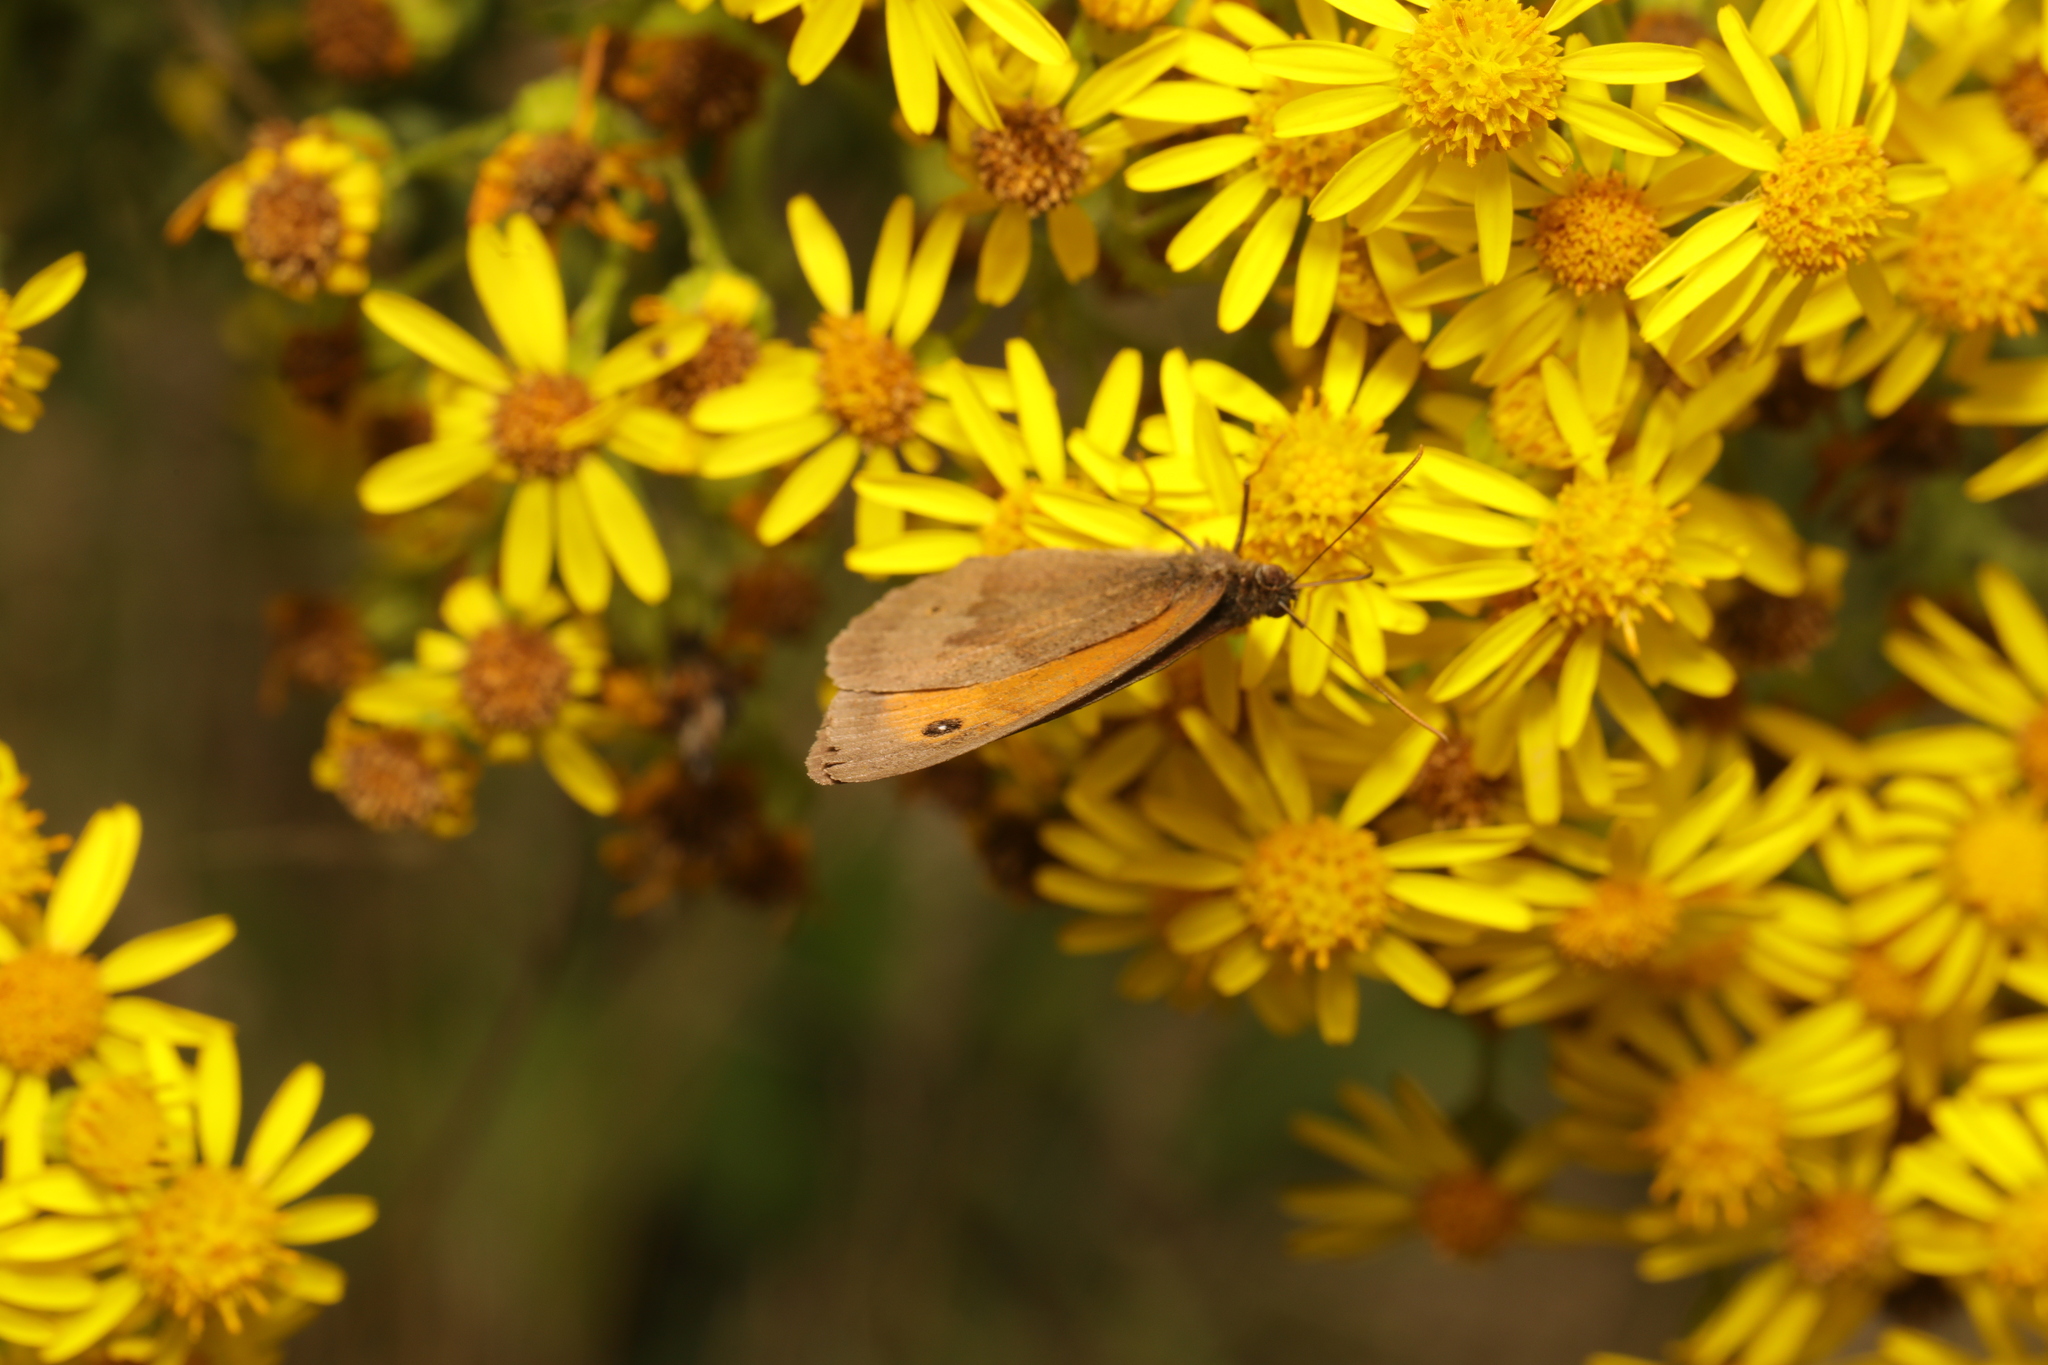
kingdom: Animalia
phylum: Arthropoda
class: Insecta
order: Lepidoptera
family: Nymphalidae
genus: Maniola
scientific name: Maniola jurtina
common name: Meadow brown
